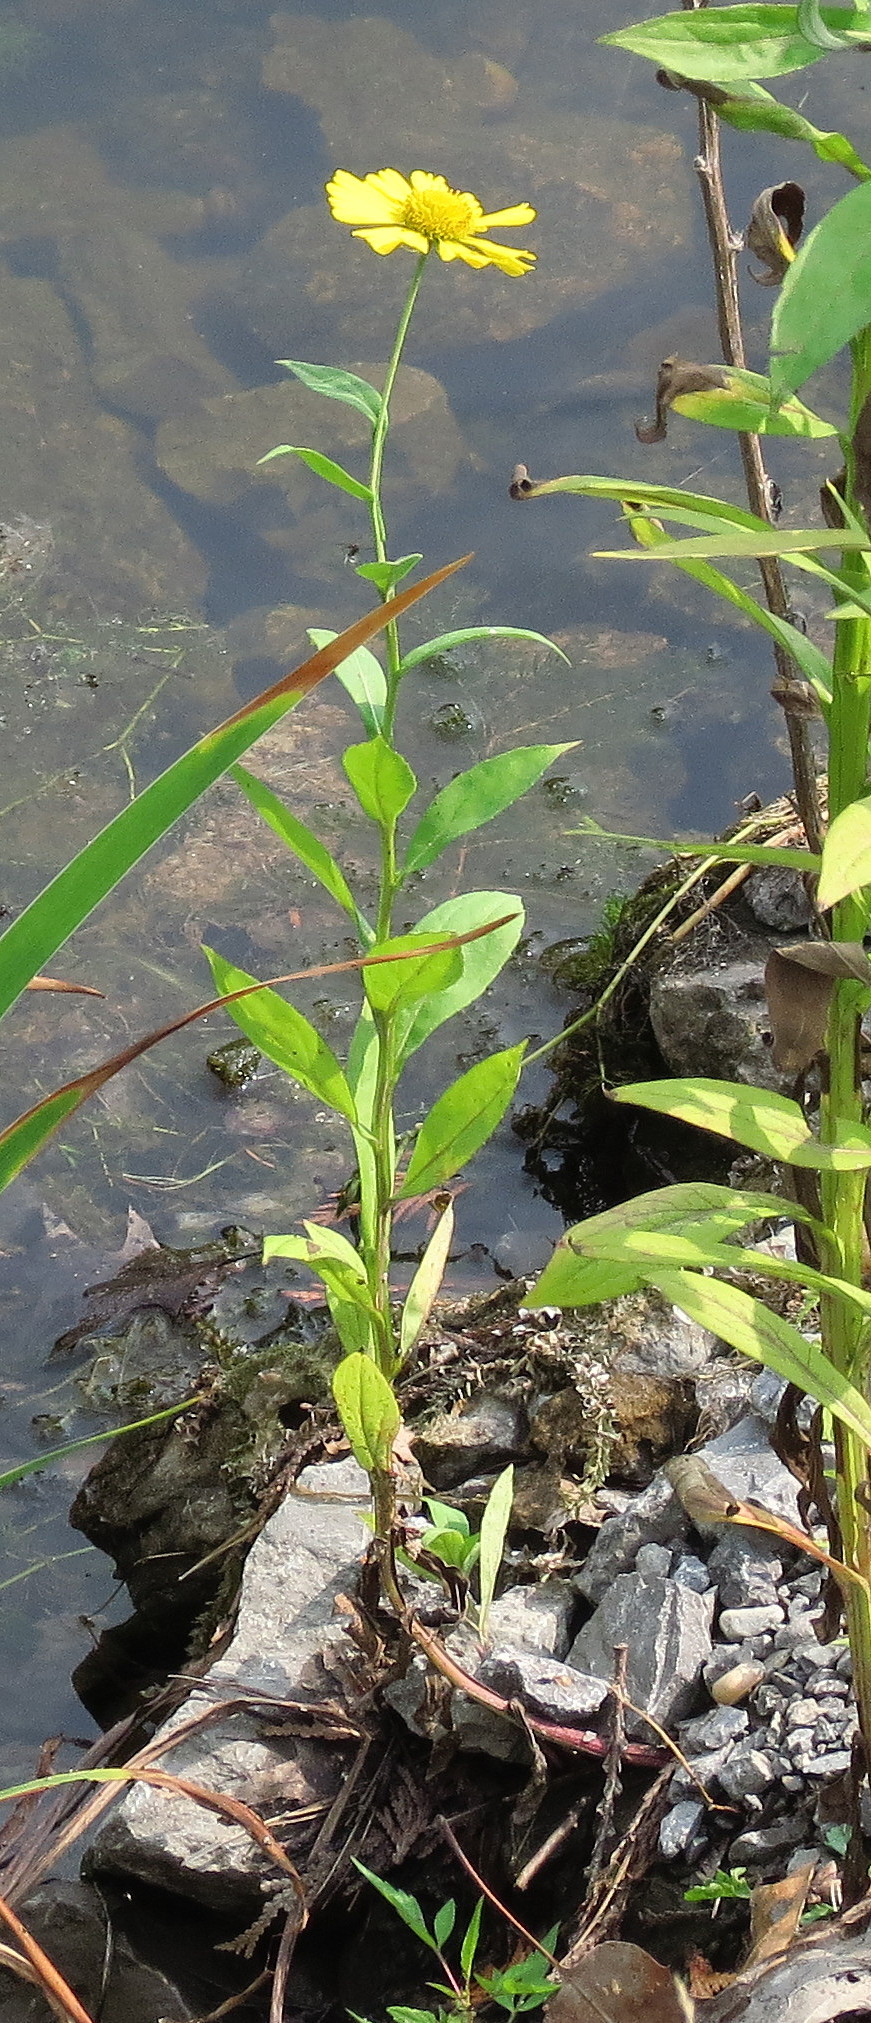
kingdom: Plantae
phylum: Tracheophyta
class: Magnoliopsida
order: Asterales
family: Asteraceae
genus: Helenium
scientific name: Helenium autumnale
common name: Sneezeweed
